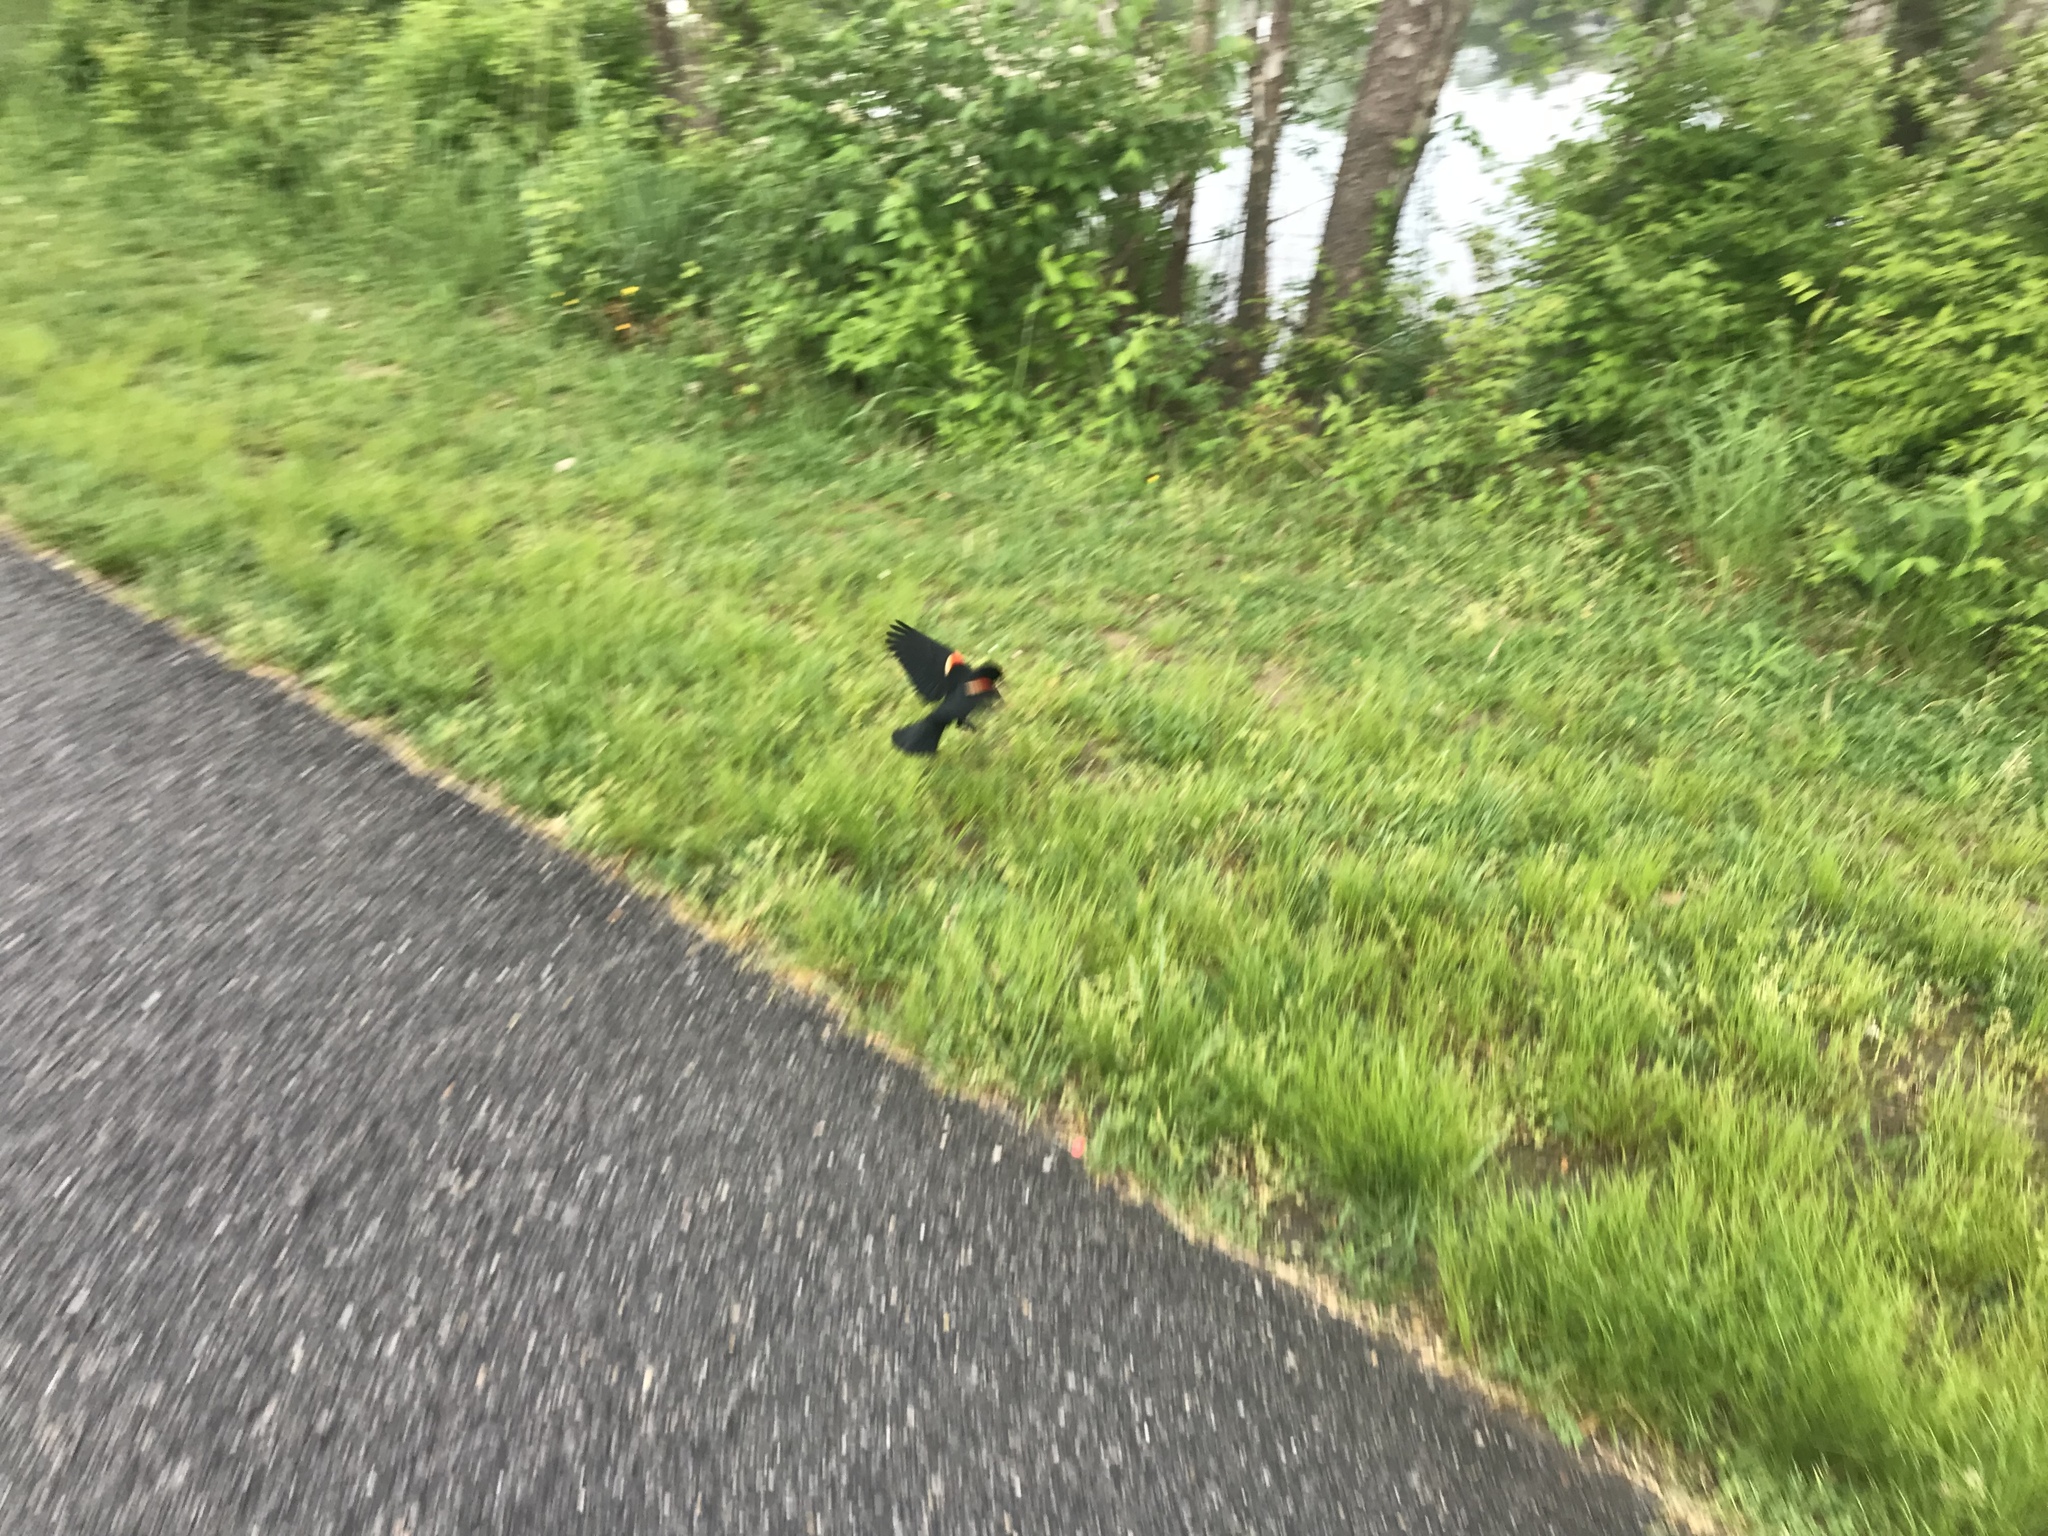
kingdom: Animalia
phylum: Chordata
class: Aves
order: Passeriformes
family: Icteridae
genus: Agelaius
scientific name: Agelaius phoeniceus
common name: Red-winged blackbird
